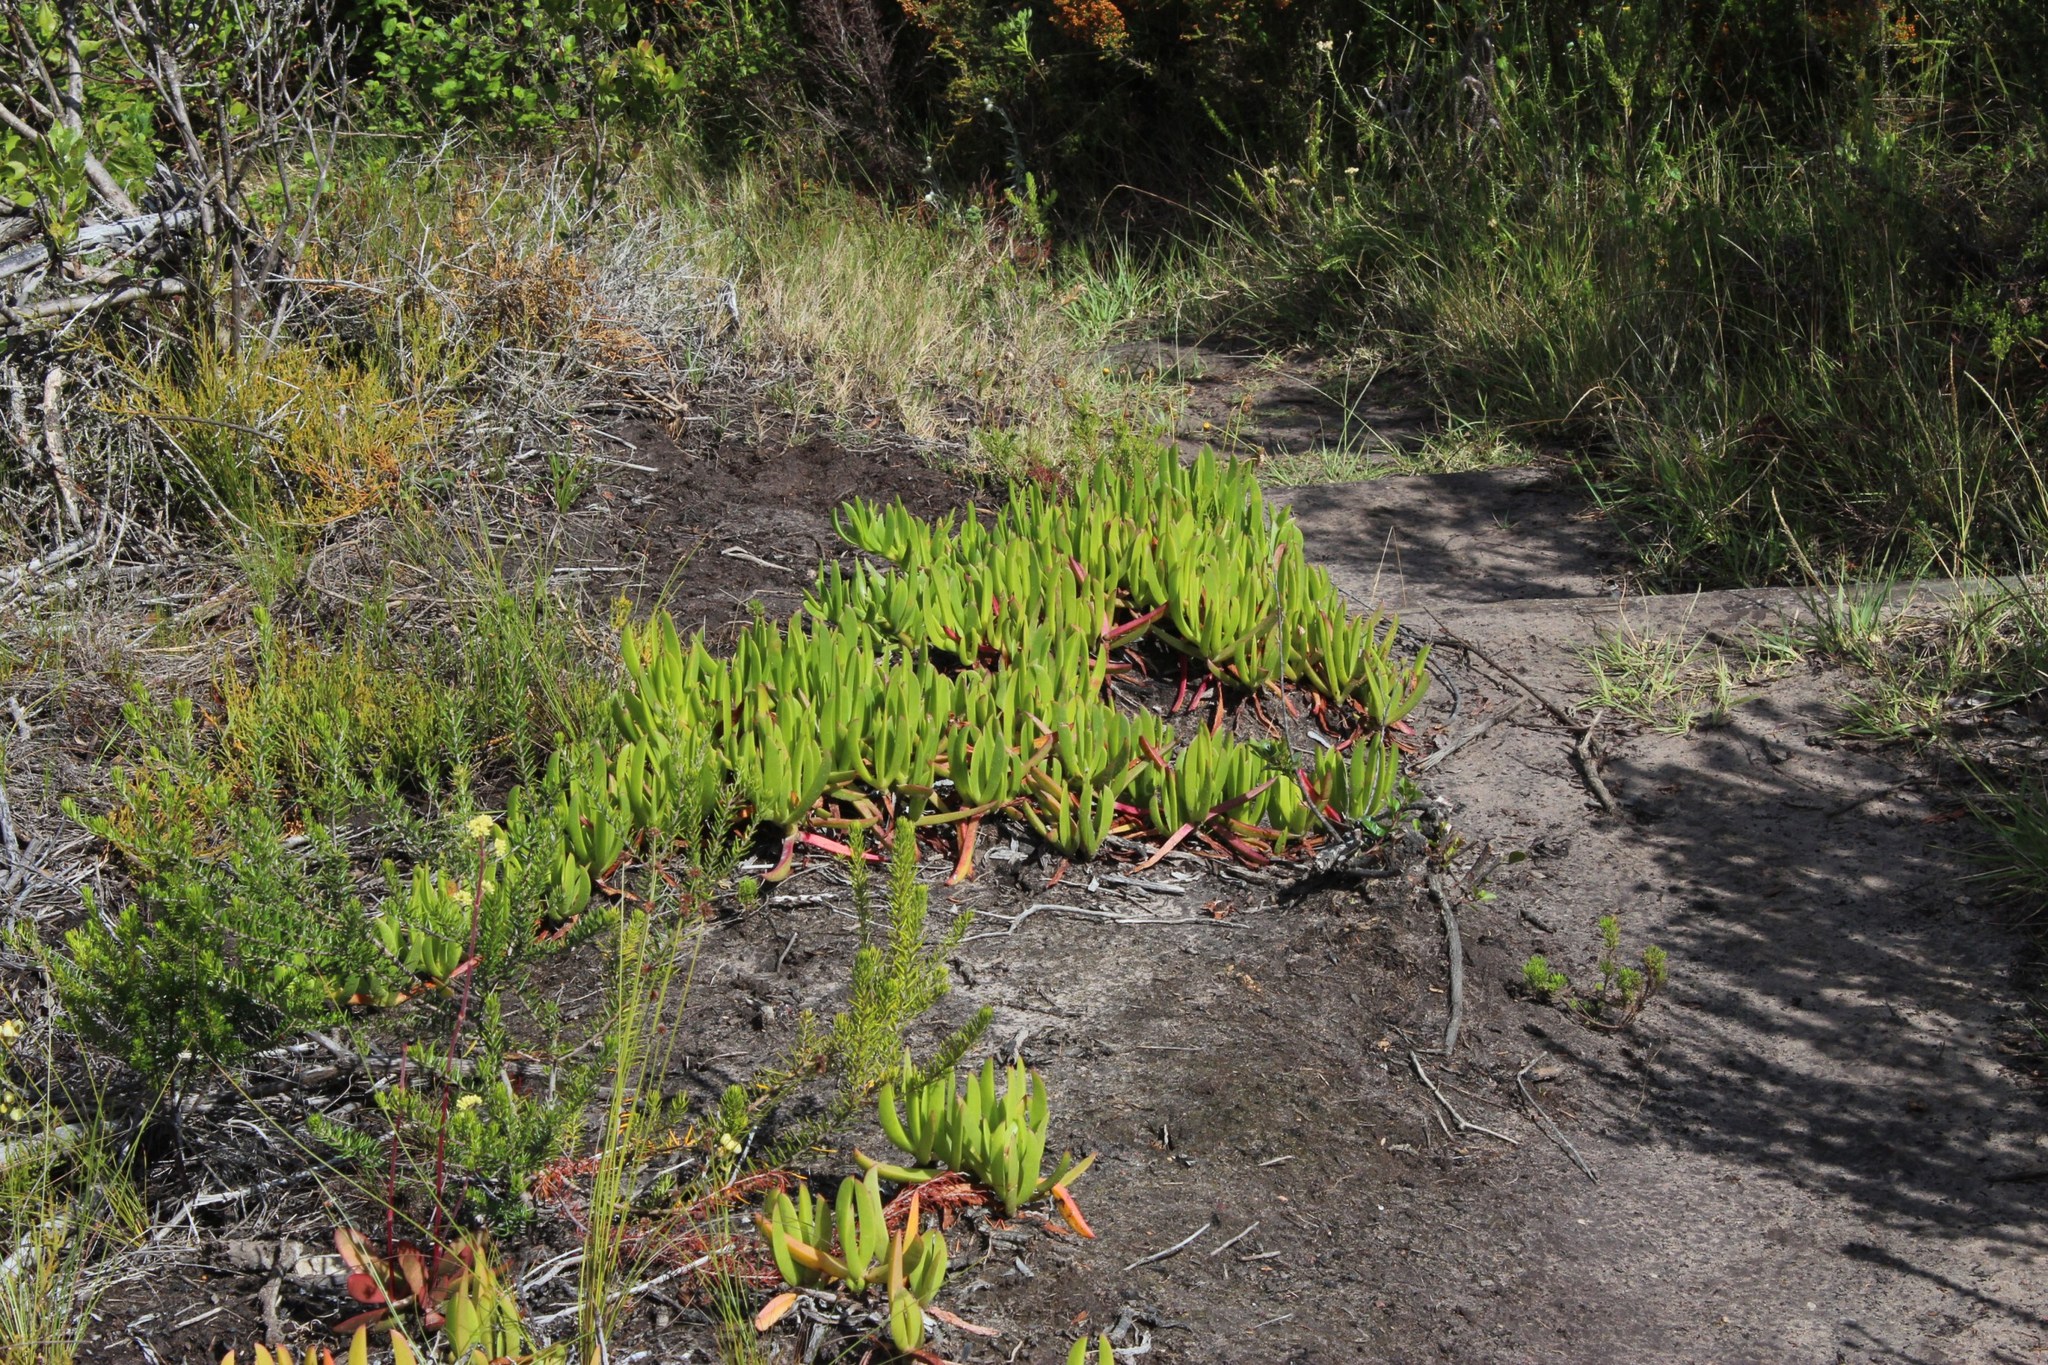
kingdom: Plantae
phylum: Tracheophyta
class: Magnoliopsida
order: Caryophyllales
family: Aizoaceae
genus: Carpobrotus
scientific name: Carpobrotus edulis
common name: Hottentot-fig
